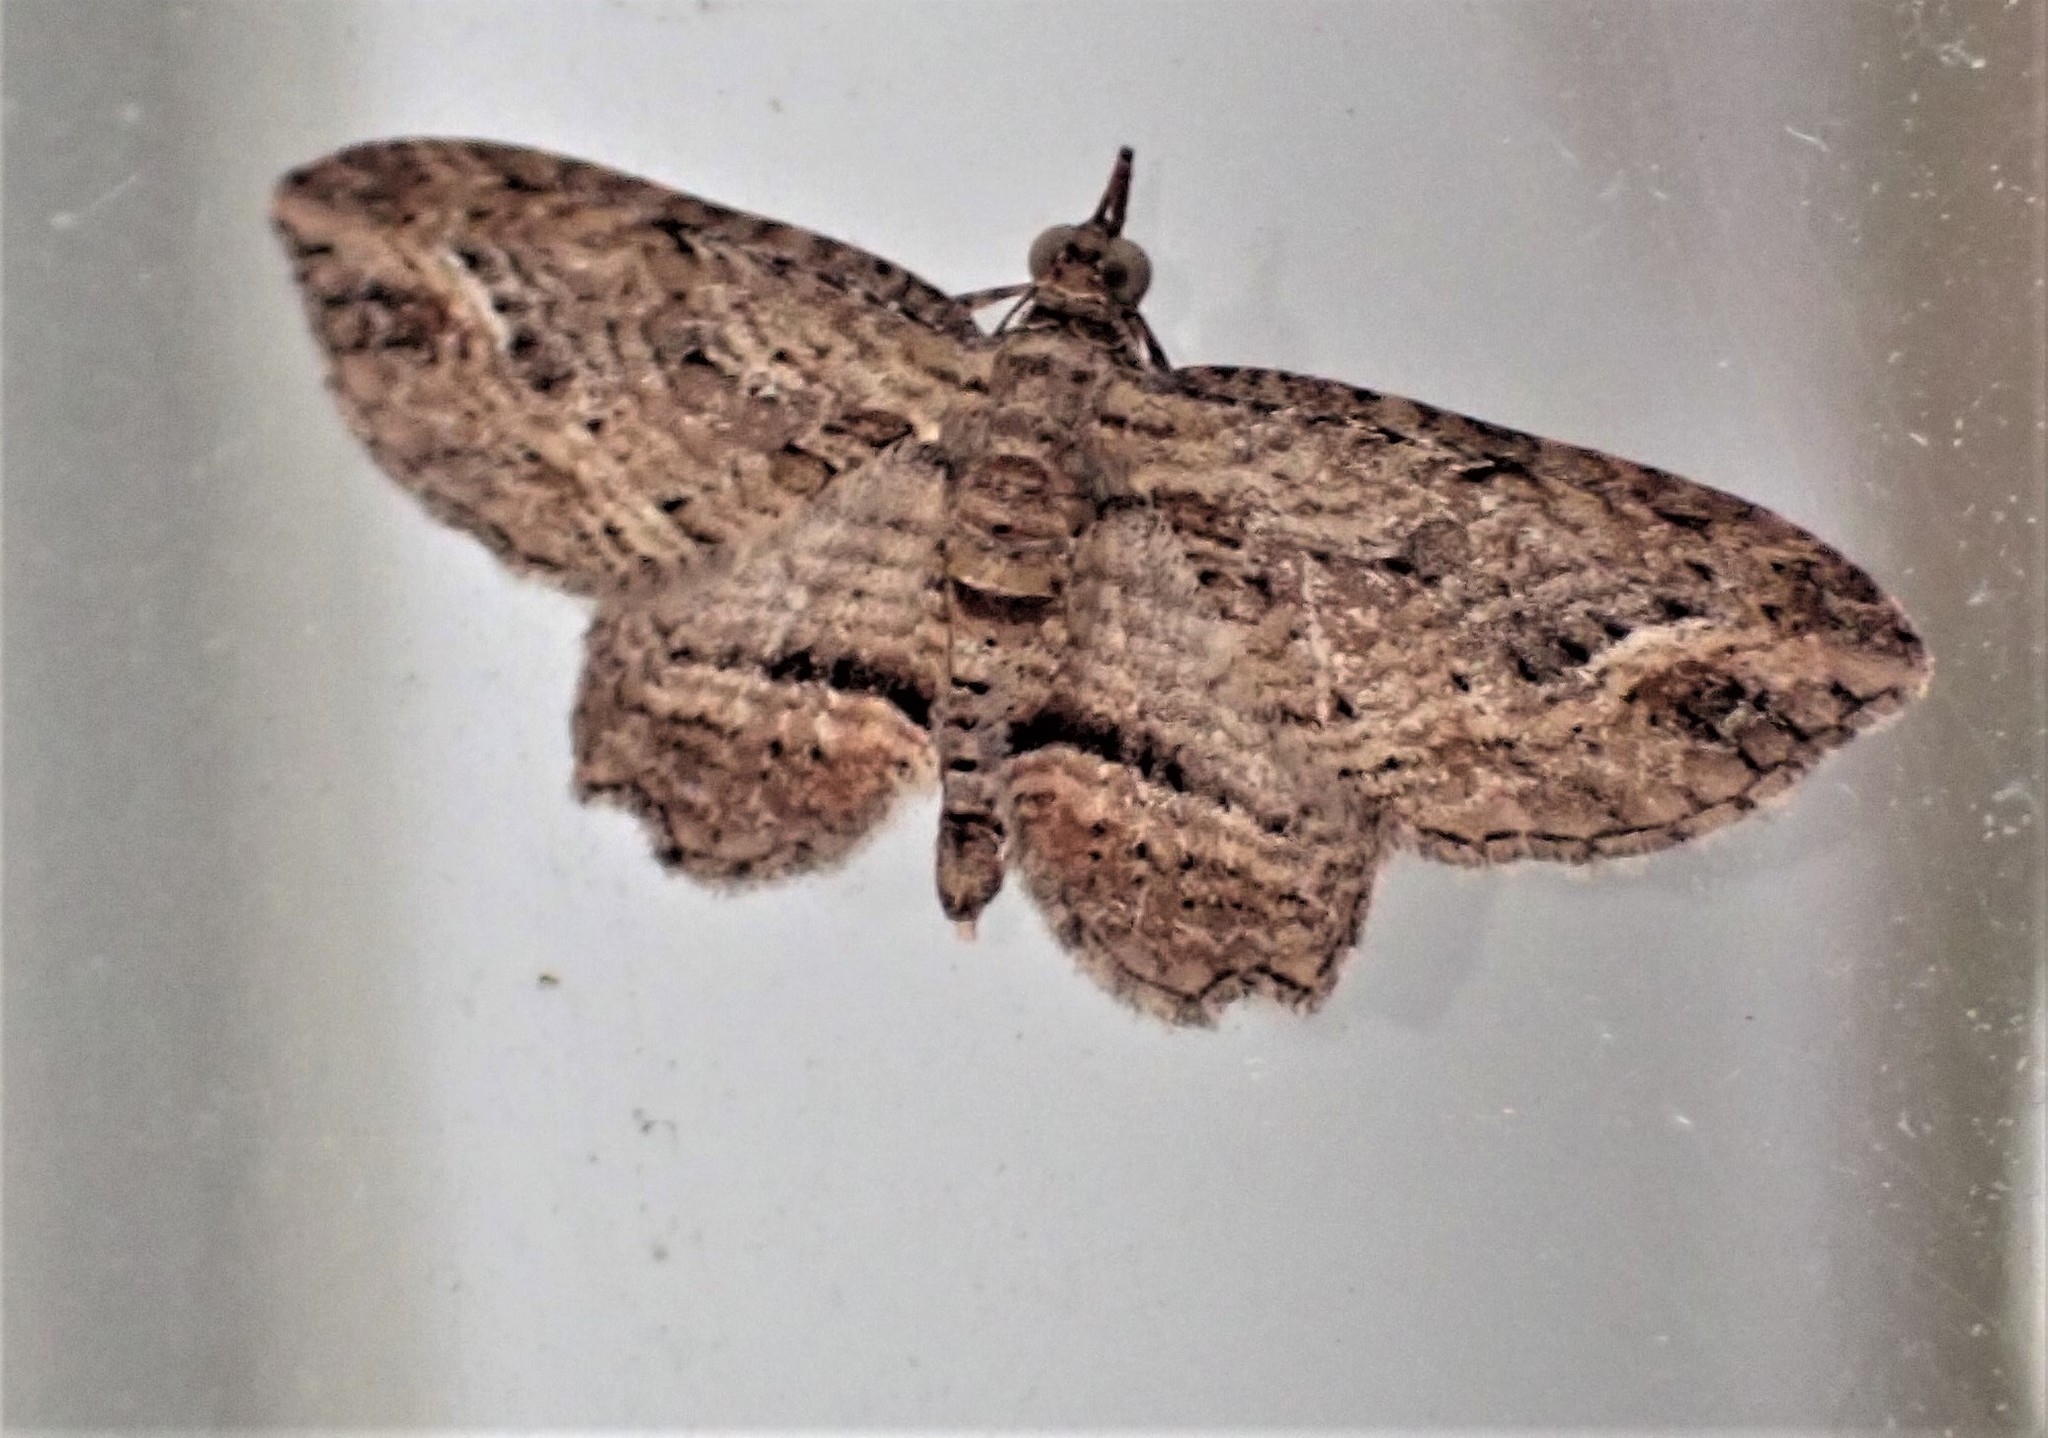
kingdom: Animalia
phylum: Arthropoda
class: Insecta
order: Lepidoptera
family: Geometridae
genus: Chloroclystis
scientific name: Chloroclystis filata
